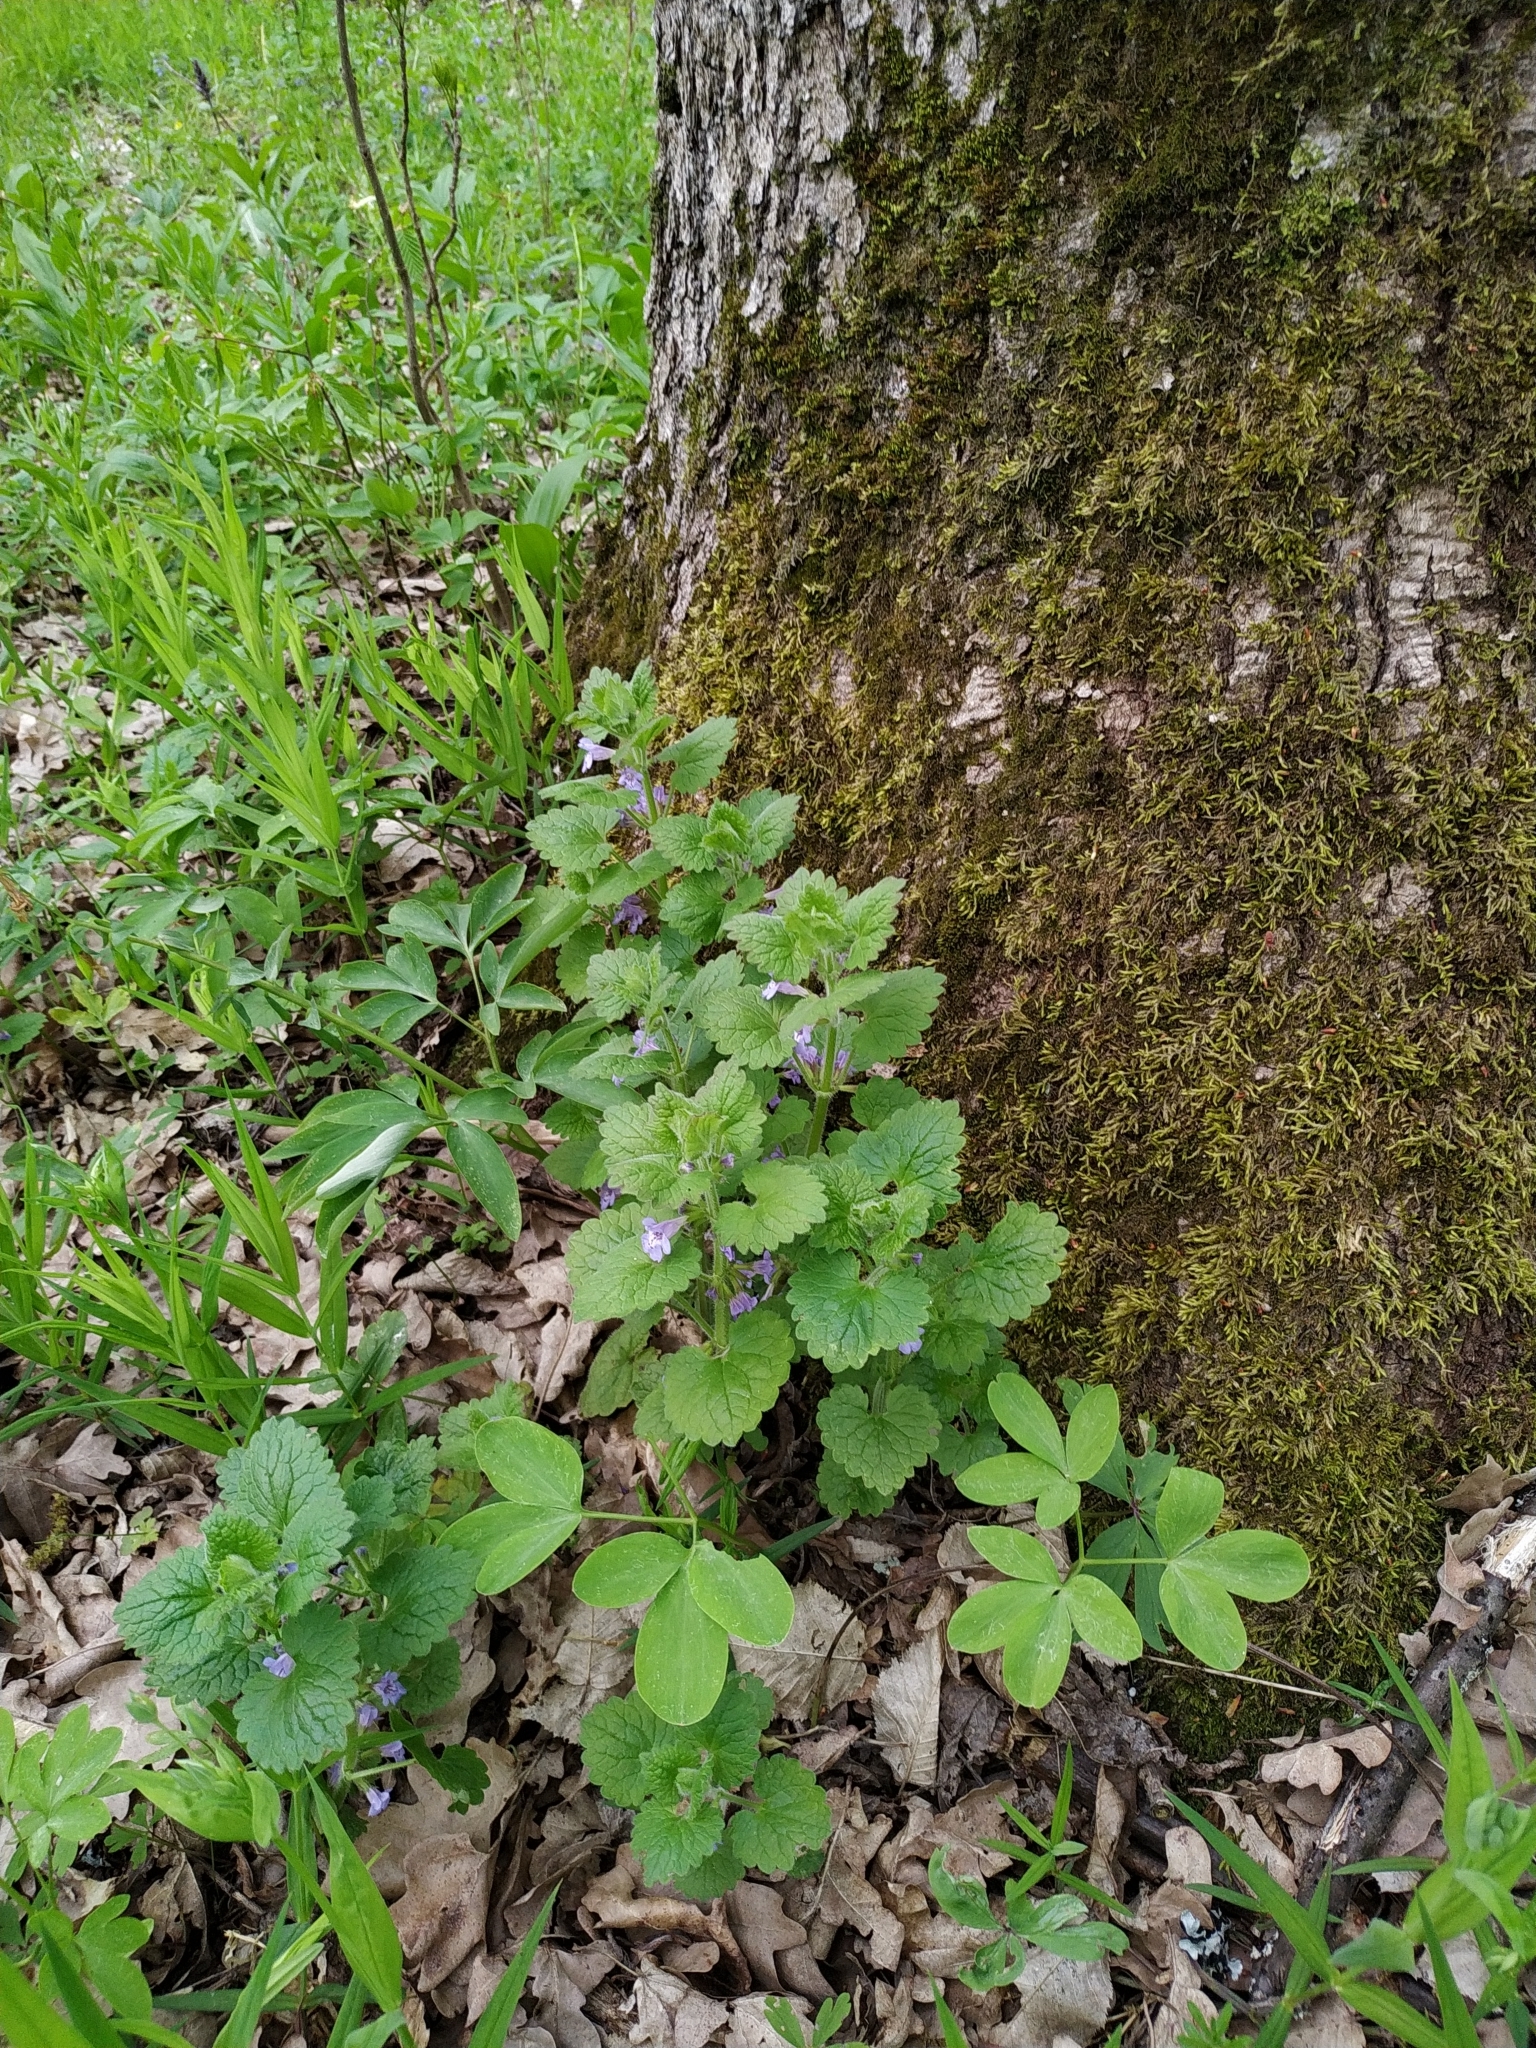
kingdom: Plantae
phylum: Tracheophyta
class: Magnoliopsida
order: Lamiales
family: Lamiaceae
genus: Glechoma
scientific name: Glechoma hirsuta
